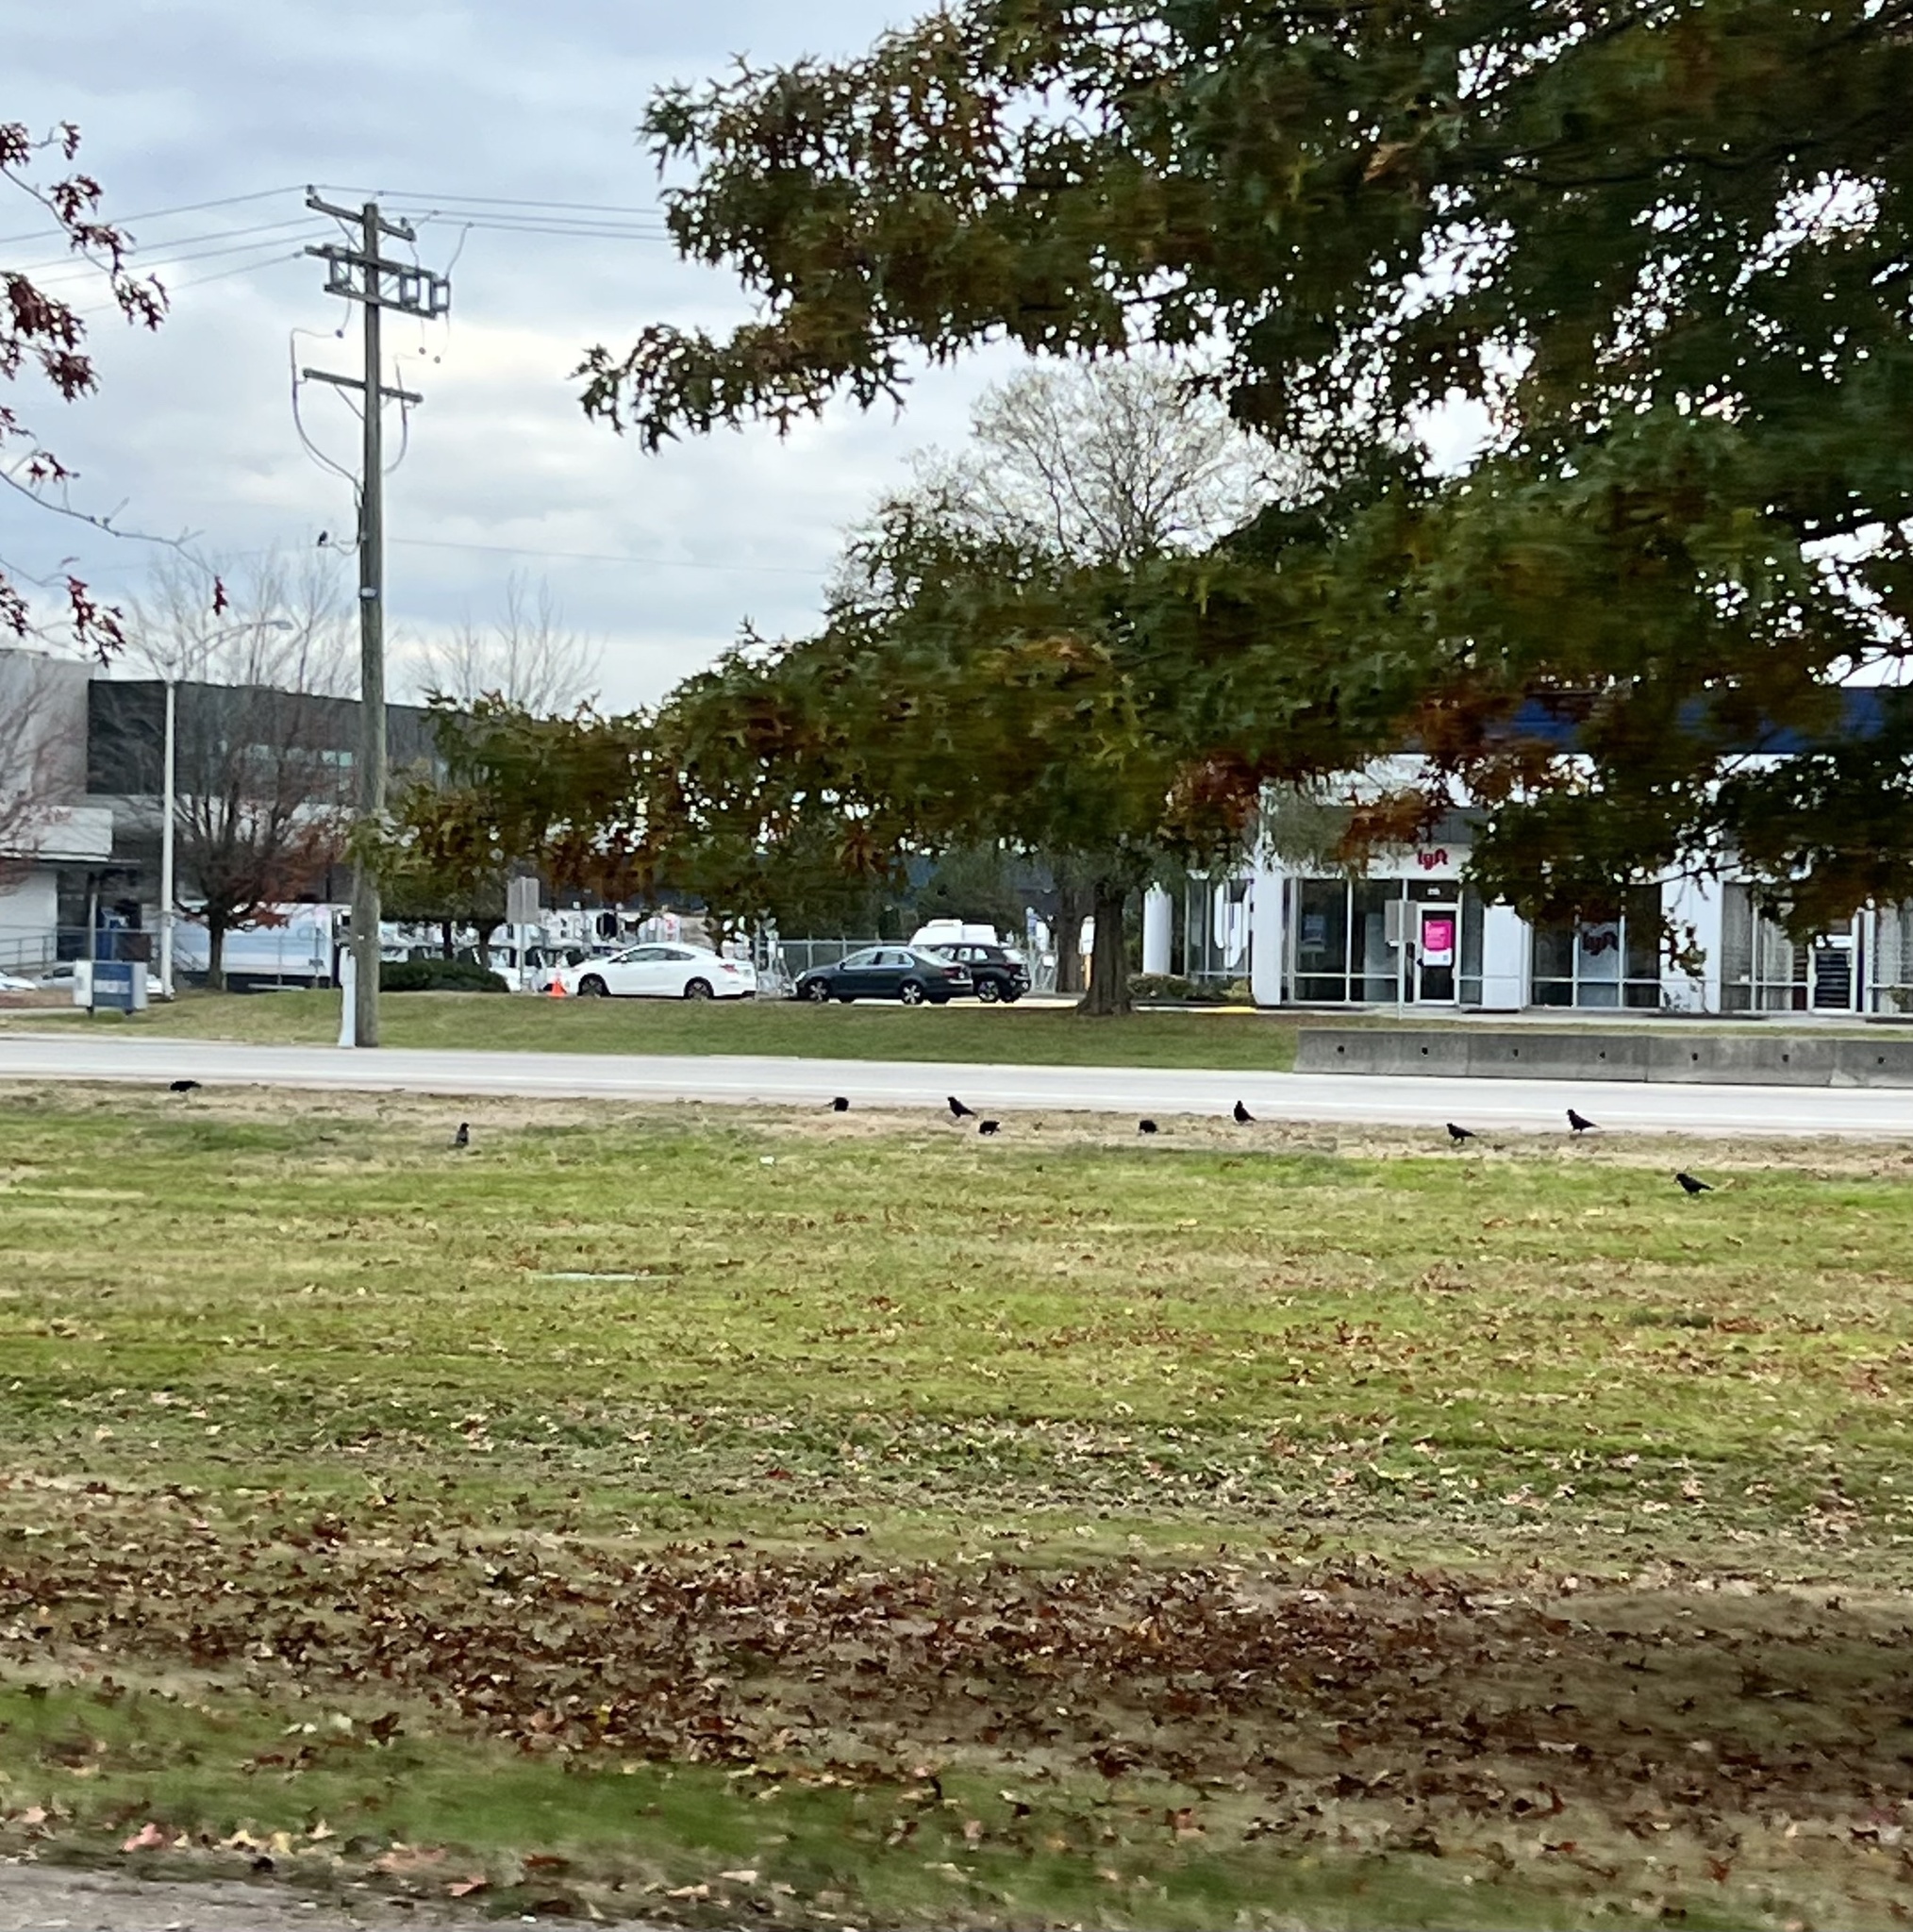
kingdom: Animalia
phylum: Chordata
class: Aves
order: Passeriformes
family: Corvidae
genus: Corvus
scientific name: Corvus brachyrhynchos
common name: American crow
